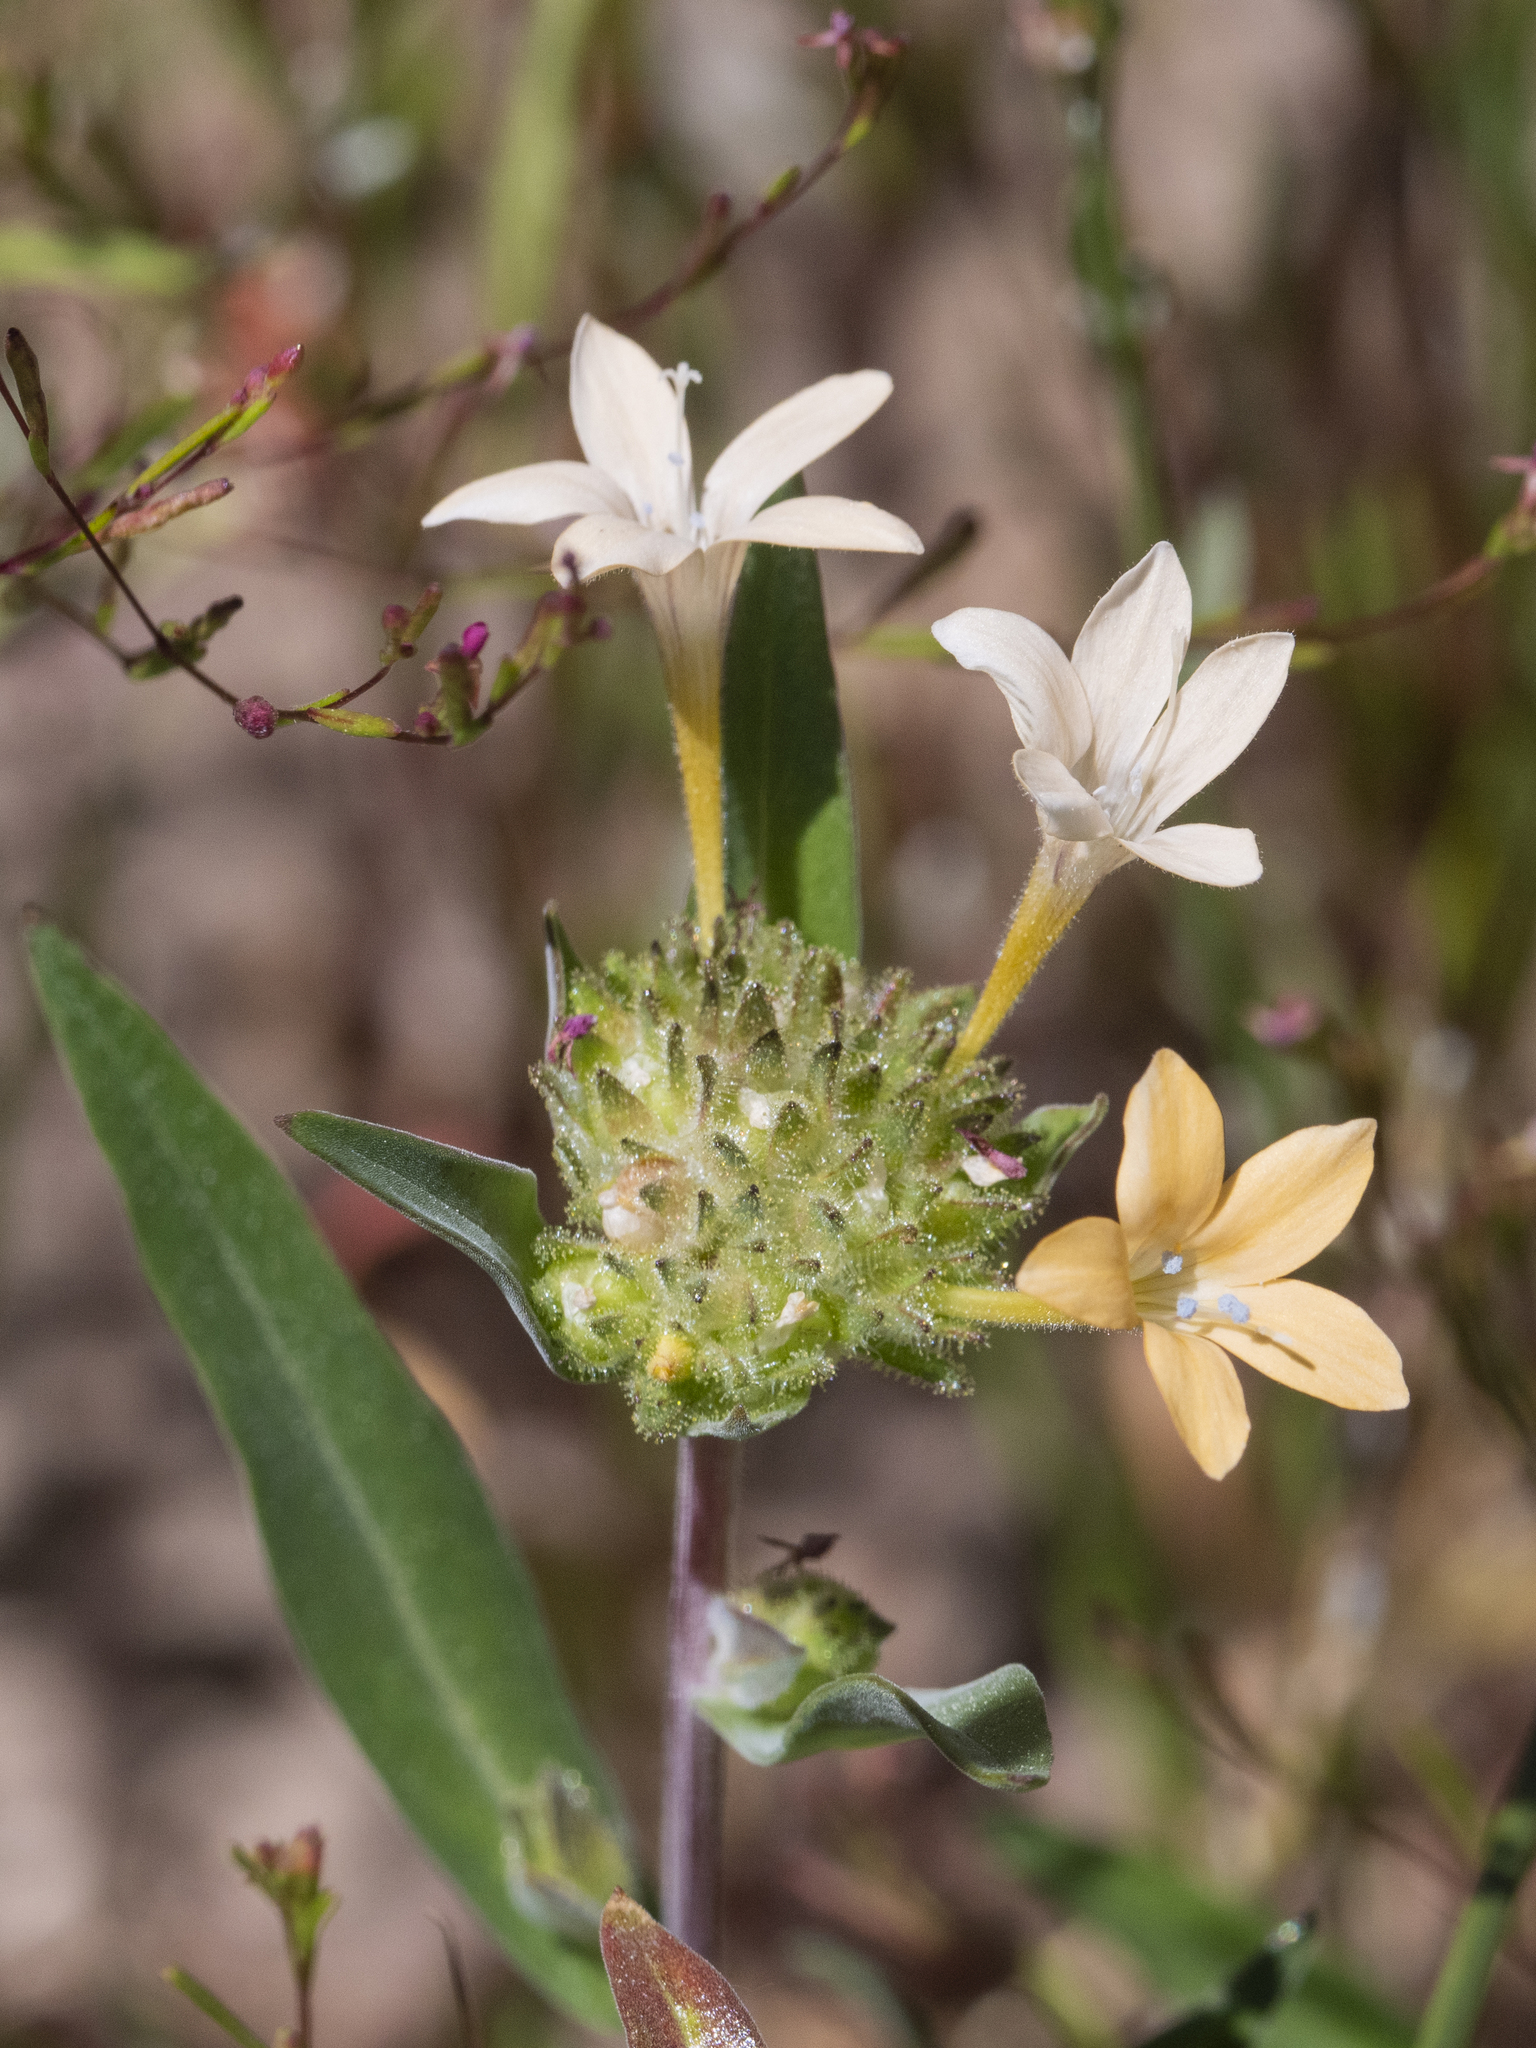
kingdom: Plantae
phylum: Tracheophyta
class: Magnoliopsida
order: Ericales
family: Polemoniaceae
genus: Collomia
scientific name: Collomia grandiflora
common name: California strawflower
